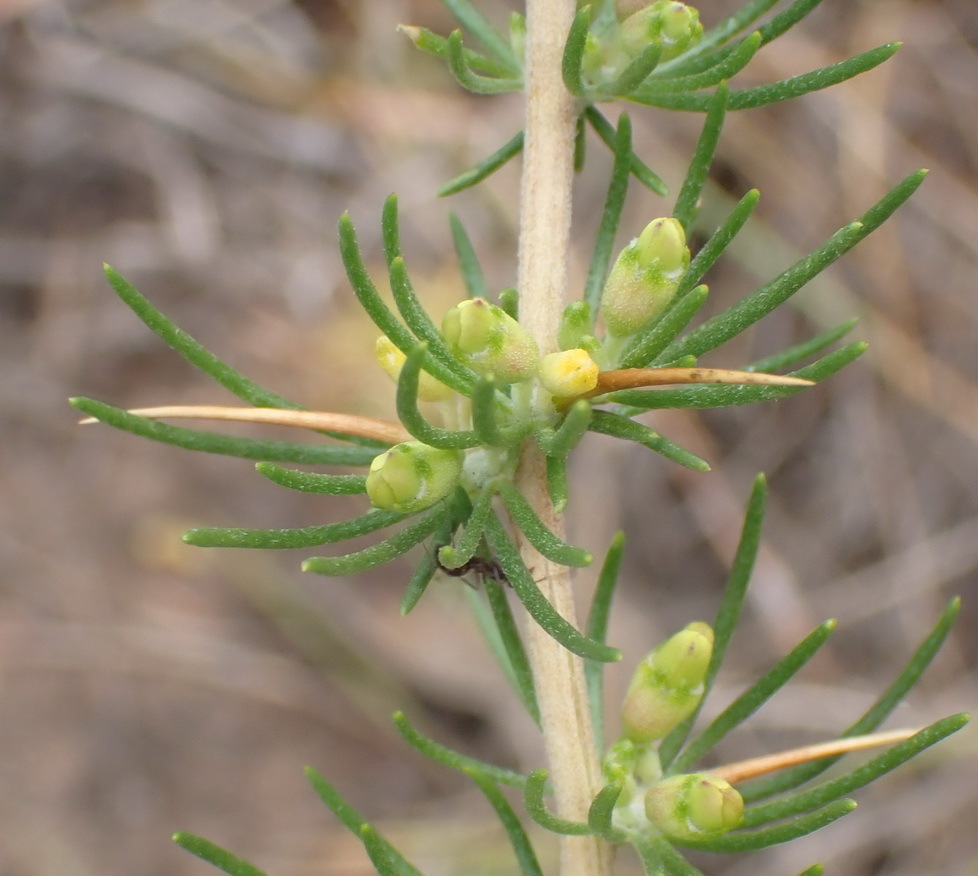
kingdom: Plantae
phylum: Tracheophyta
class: Magnoliopsida
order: Fabales
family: Fabaceae
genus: Aspalathus
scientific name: Aspalathus spinosa
